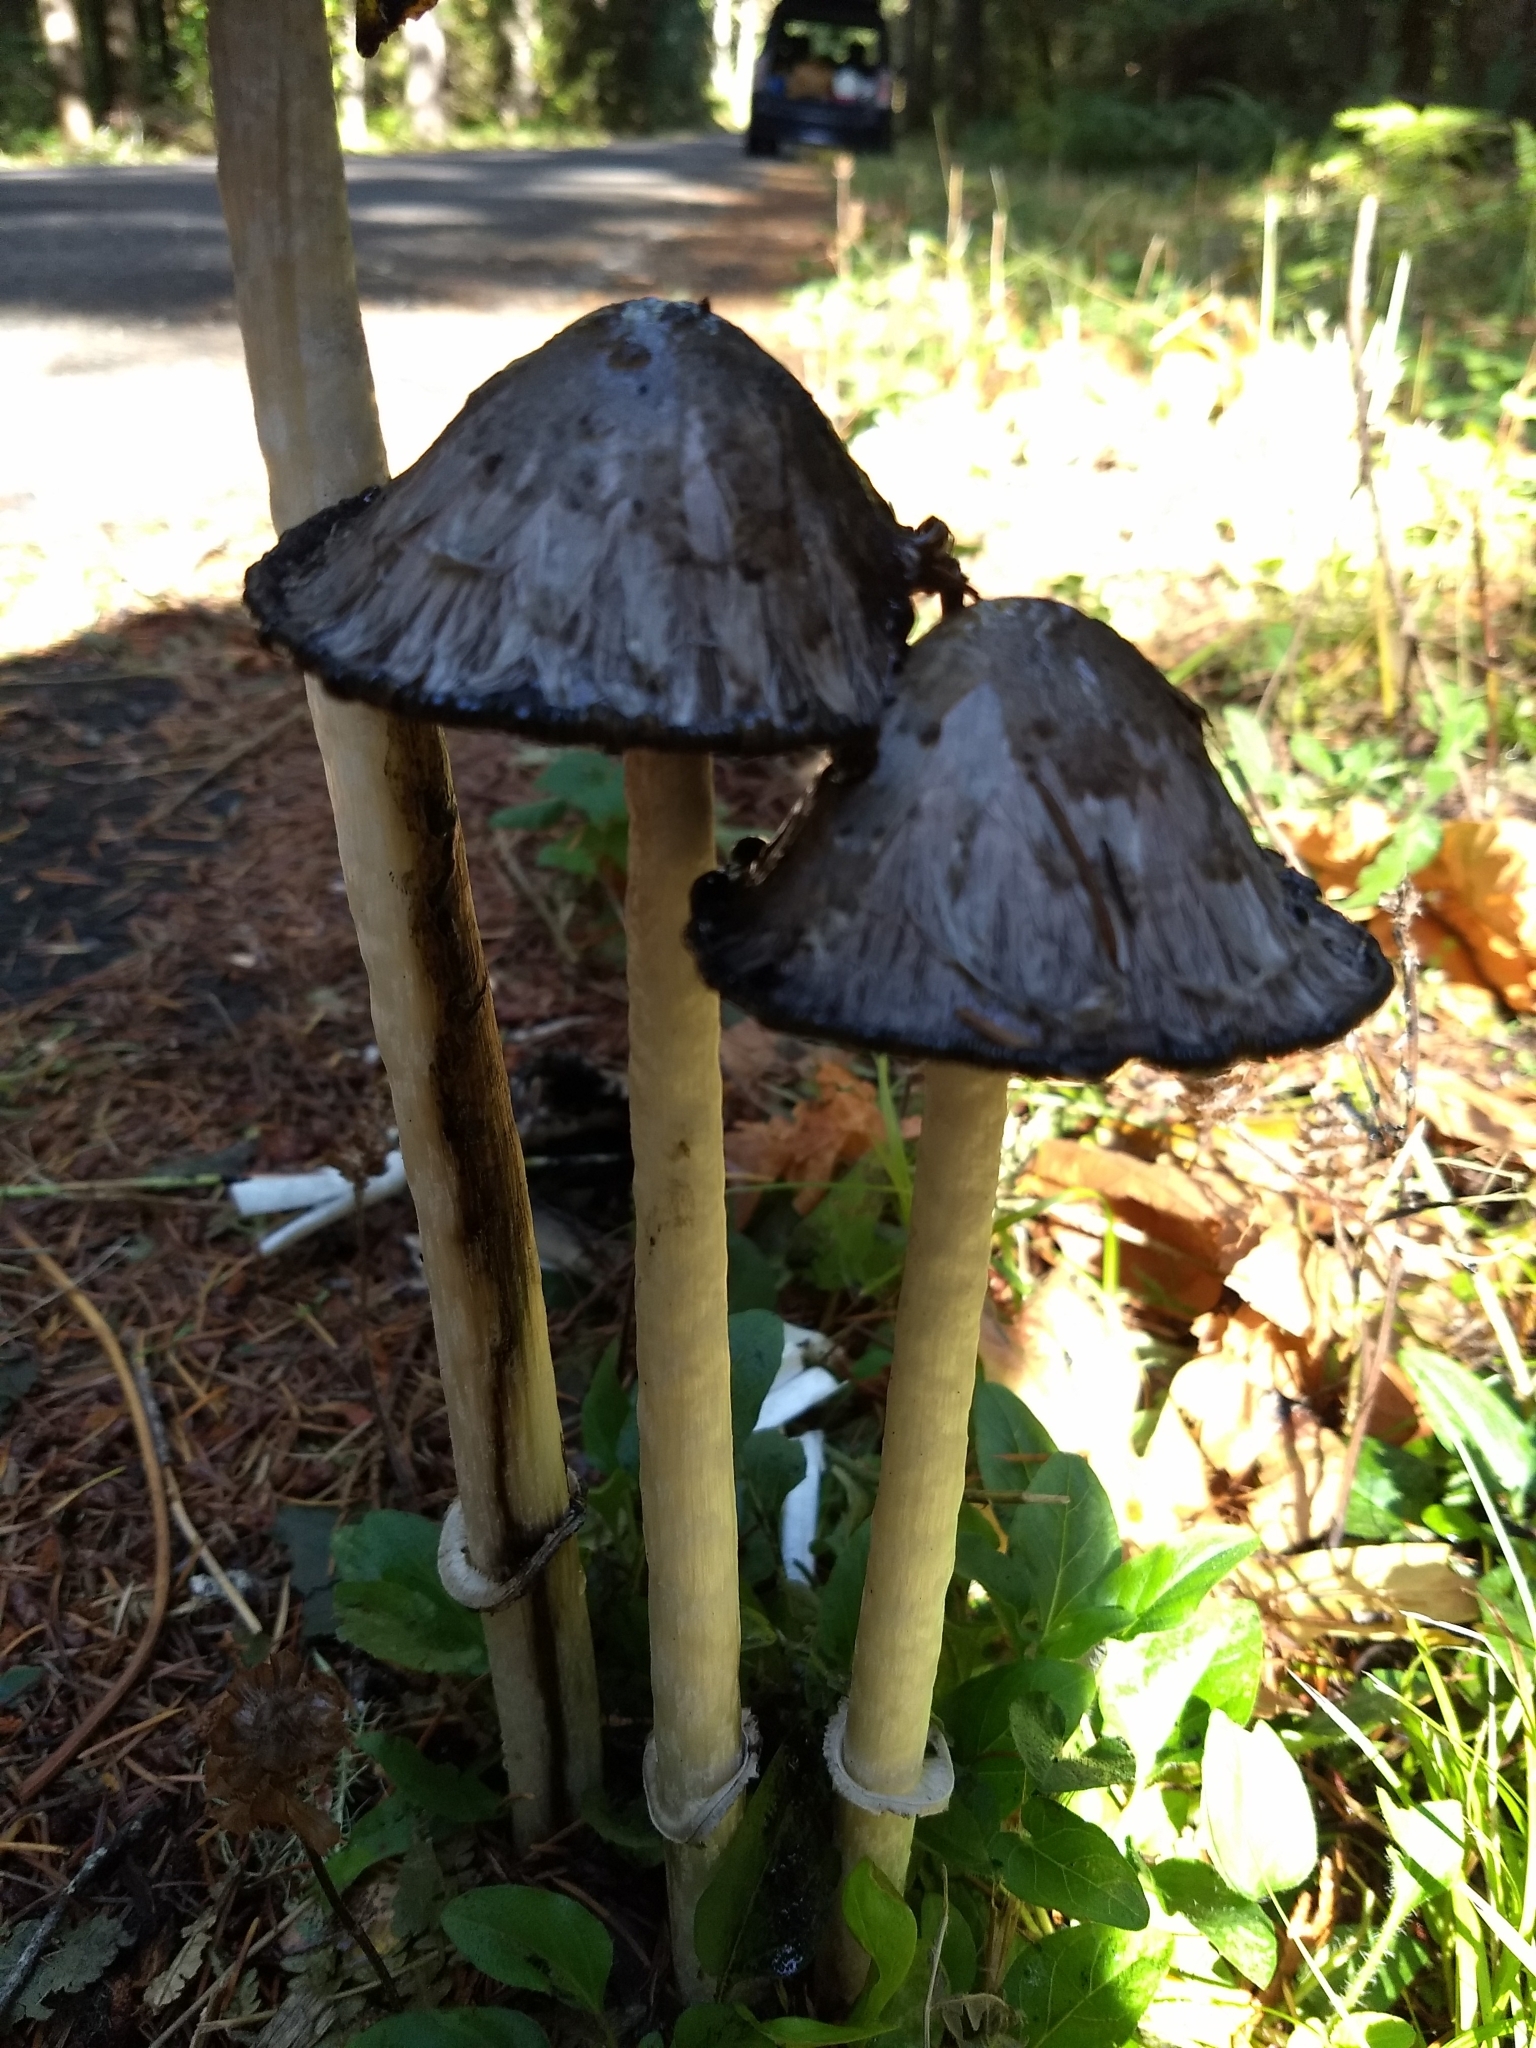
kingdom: Fungi
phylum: Basidiomycota
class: Agaricomycetes
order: Agaricales
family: Agaricaceae
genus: Coprinus
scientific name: Coprinus comatus
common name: Lawyer's wig
